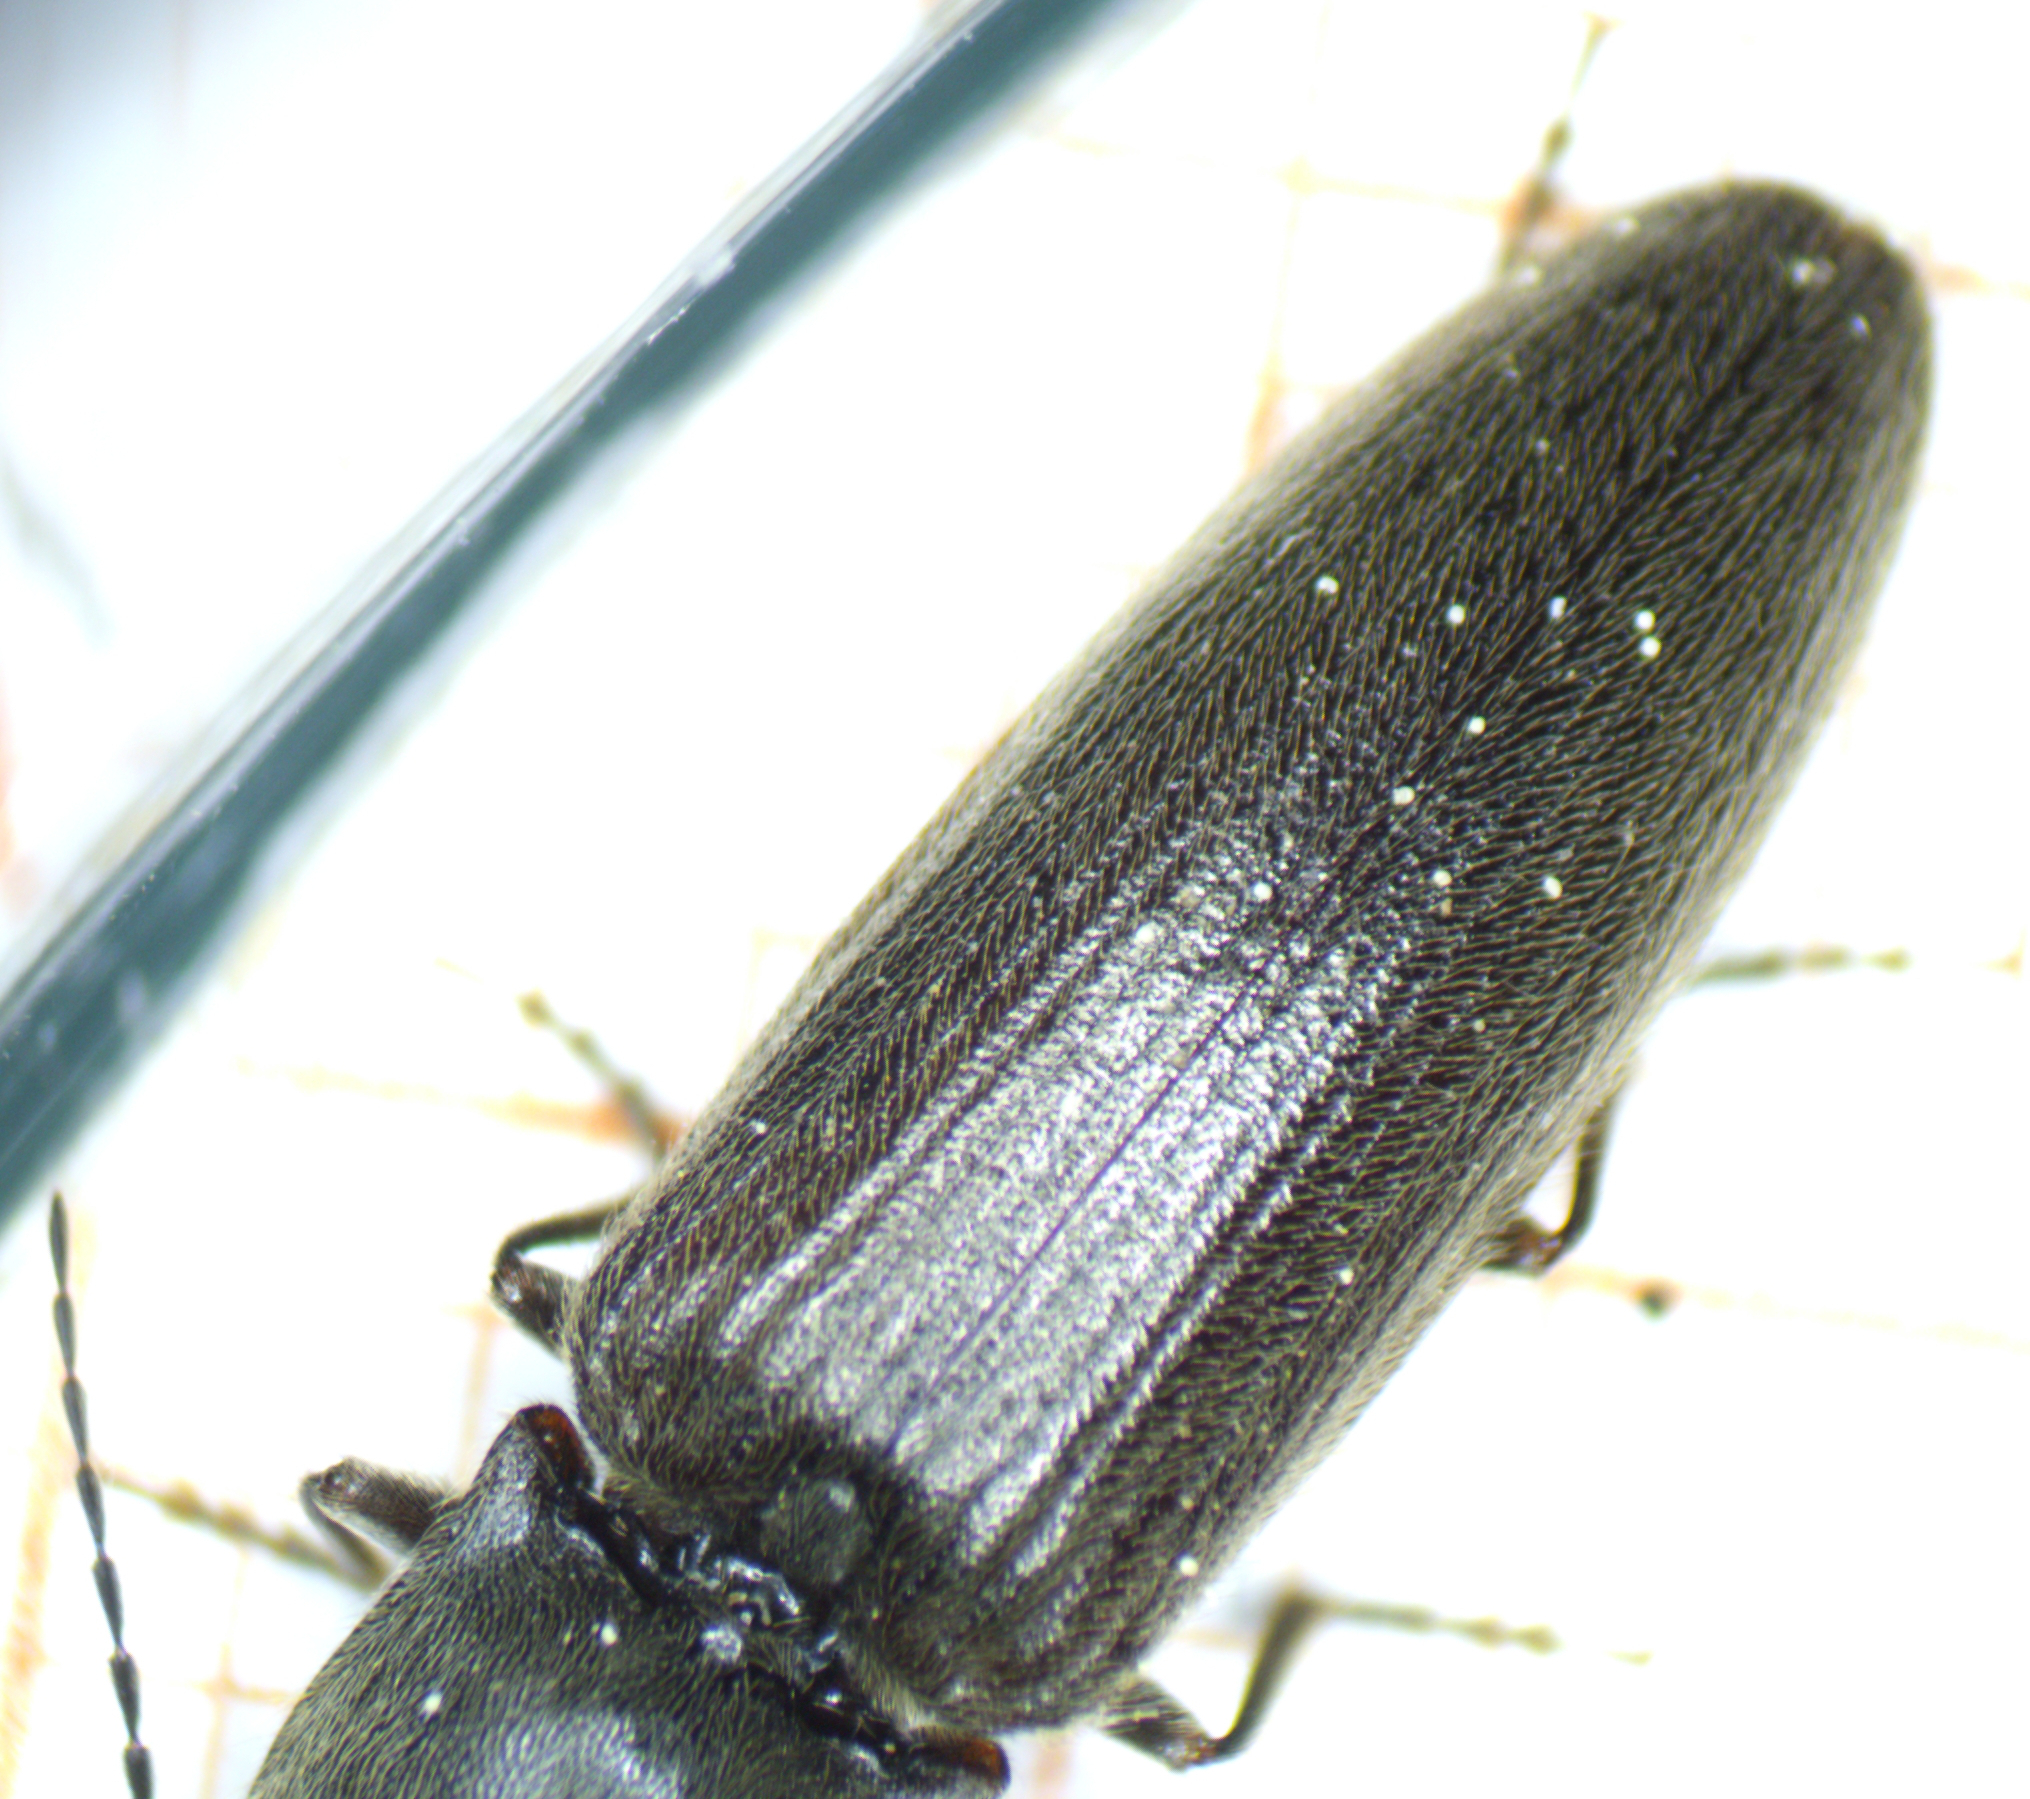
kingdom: Animalia
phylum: Arthropoda
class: Insecta
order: Coleoptera
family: Elateridae
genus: Athous
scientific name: Athous haemorrhoidalis
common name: Red-brown click beetle
